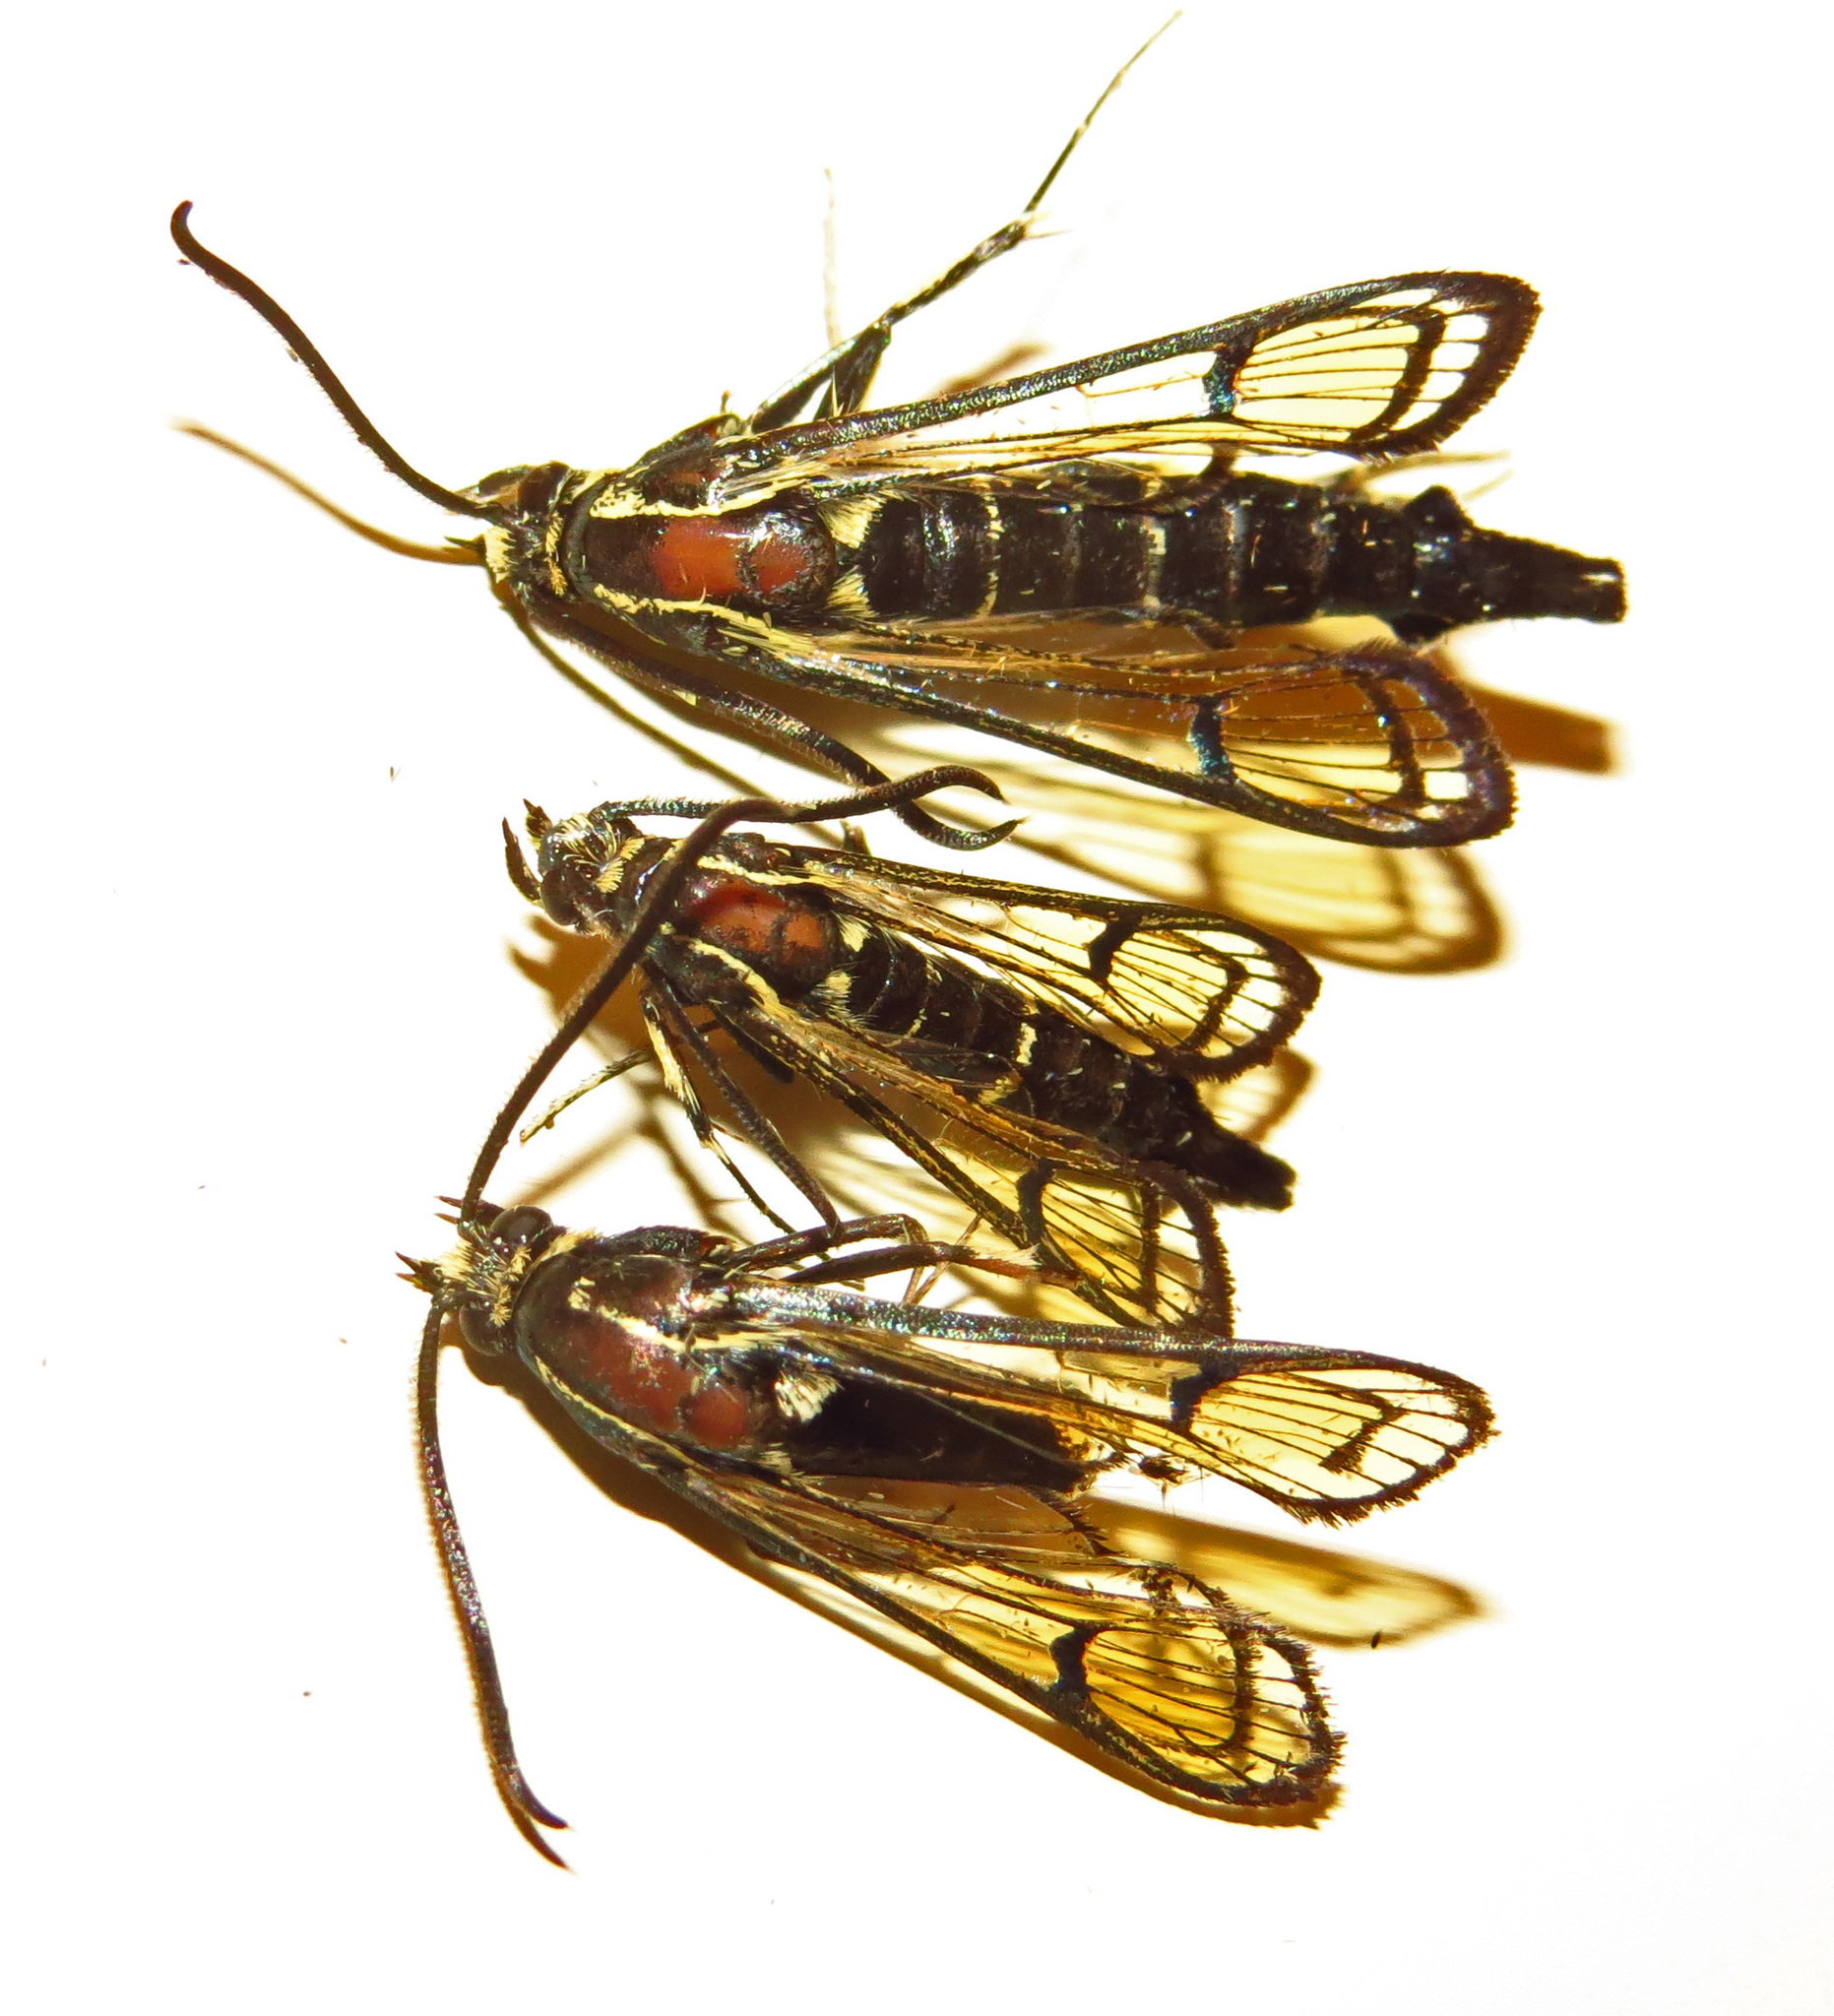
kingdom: Animalia
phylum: Arthropoda
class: Insecta
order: Lepidoptera
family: Sesiidae
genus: Synanthedon
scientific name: Synanthedon exitiosa
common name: Peachtree borer moth
